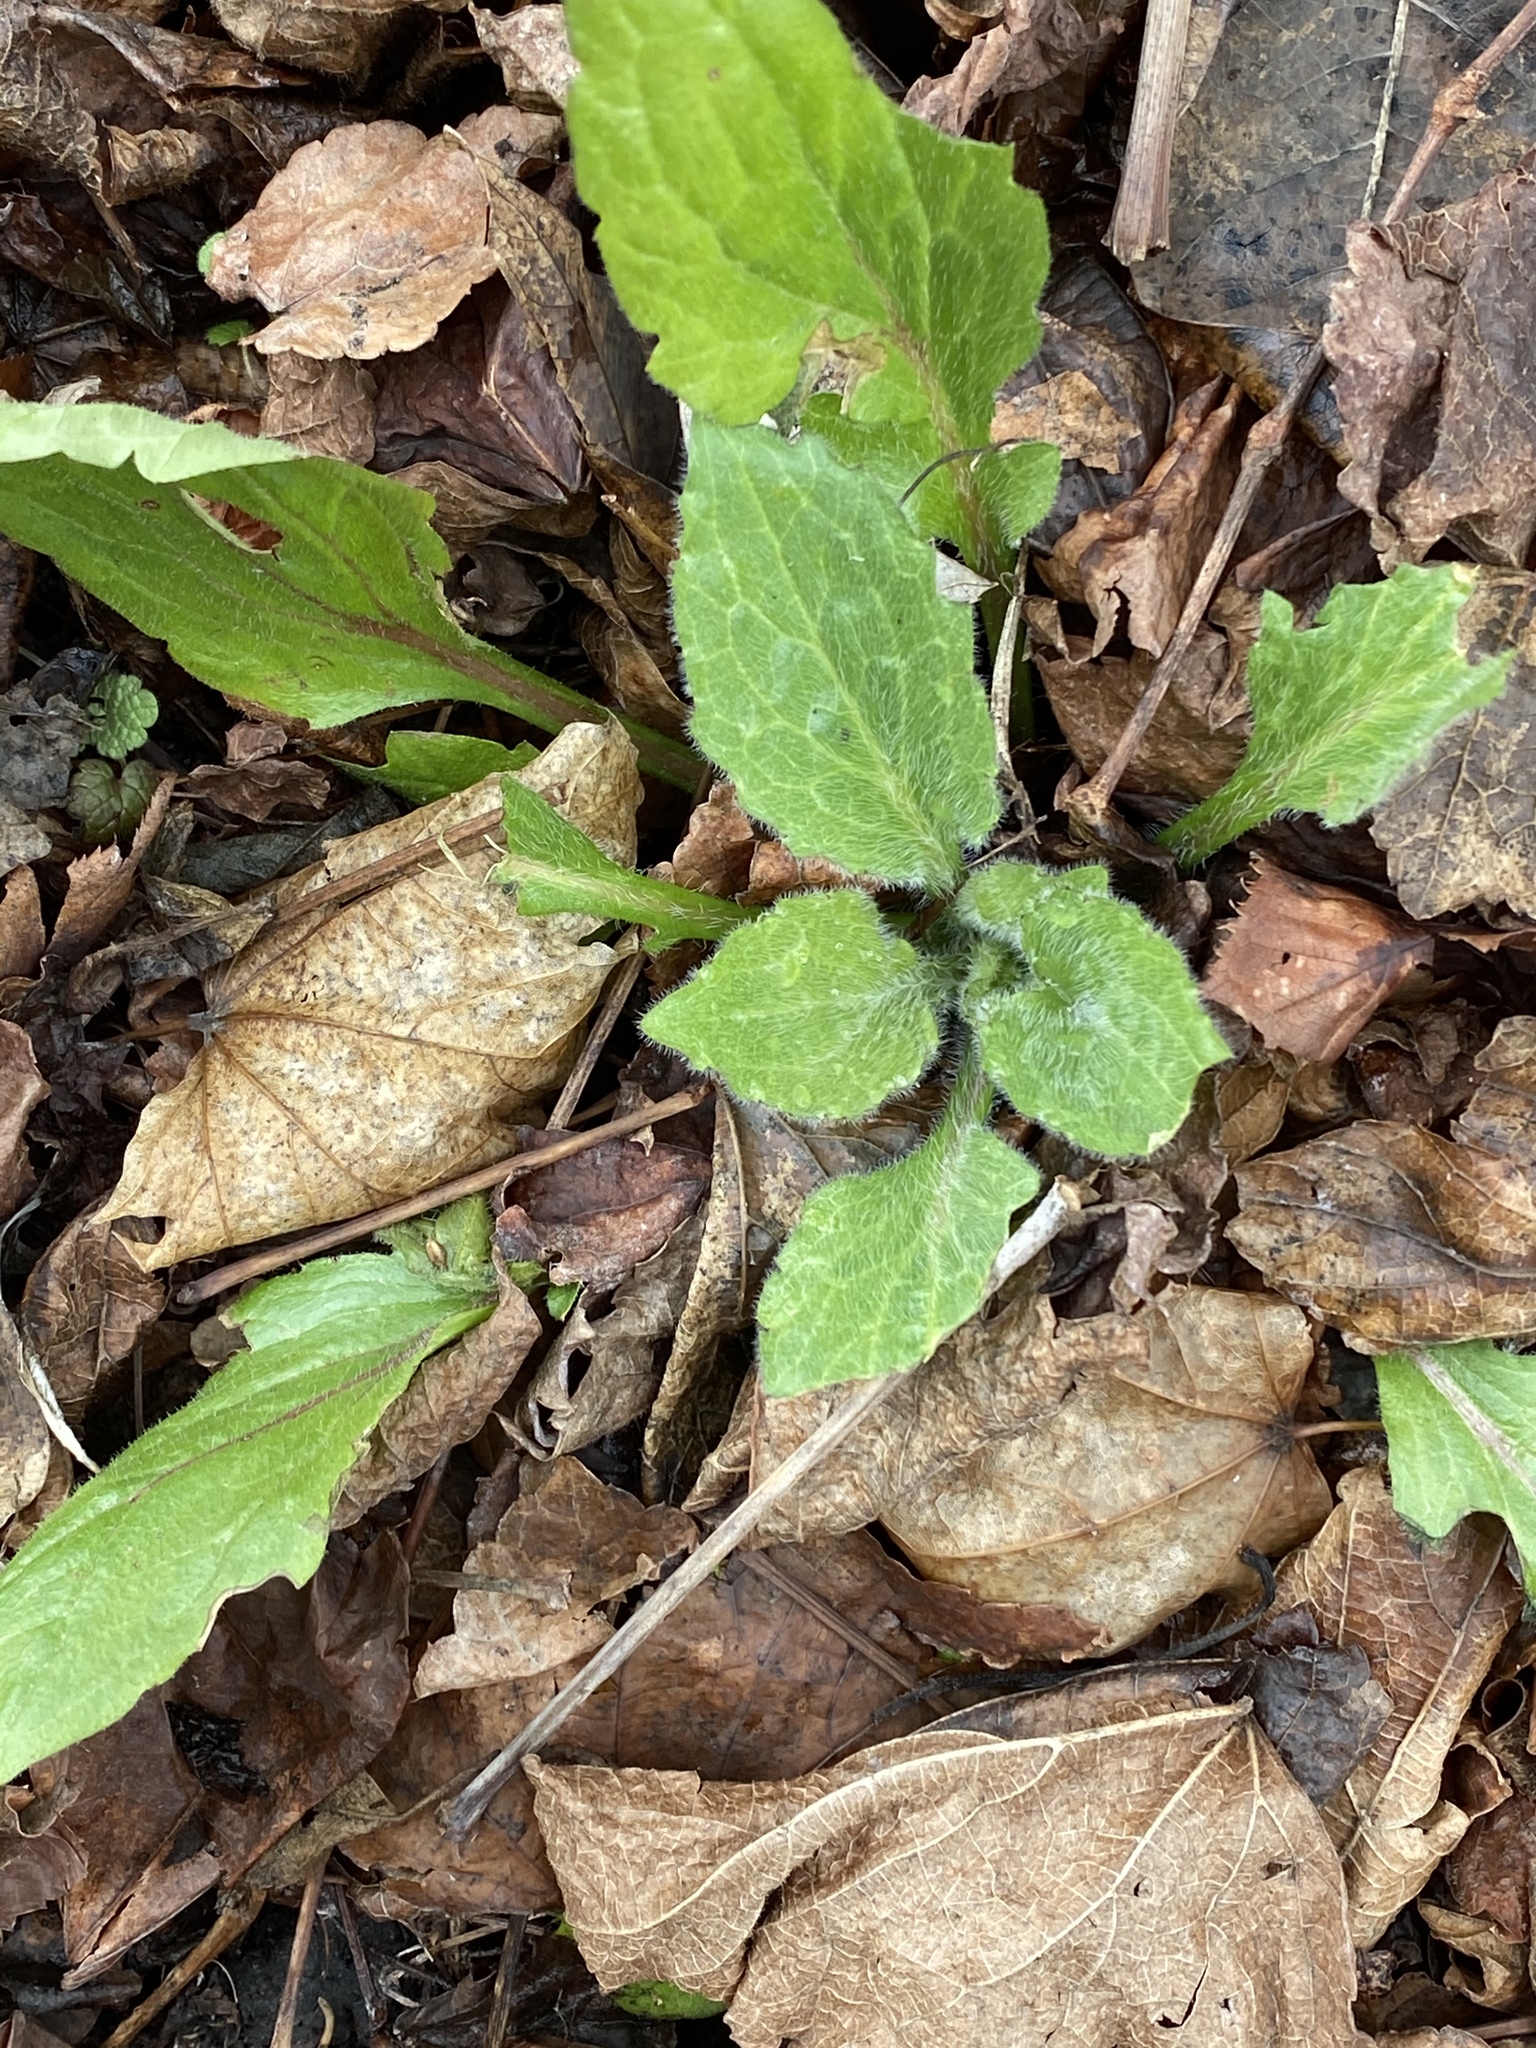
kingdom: Plantae
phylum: Tracheophyta
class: Magnoliopsida
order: Caryophyllales
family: Caryophyllaceae
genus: Silene
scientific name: Silene latifolia
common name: White campion
